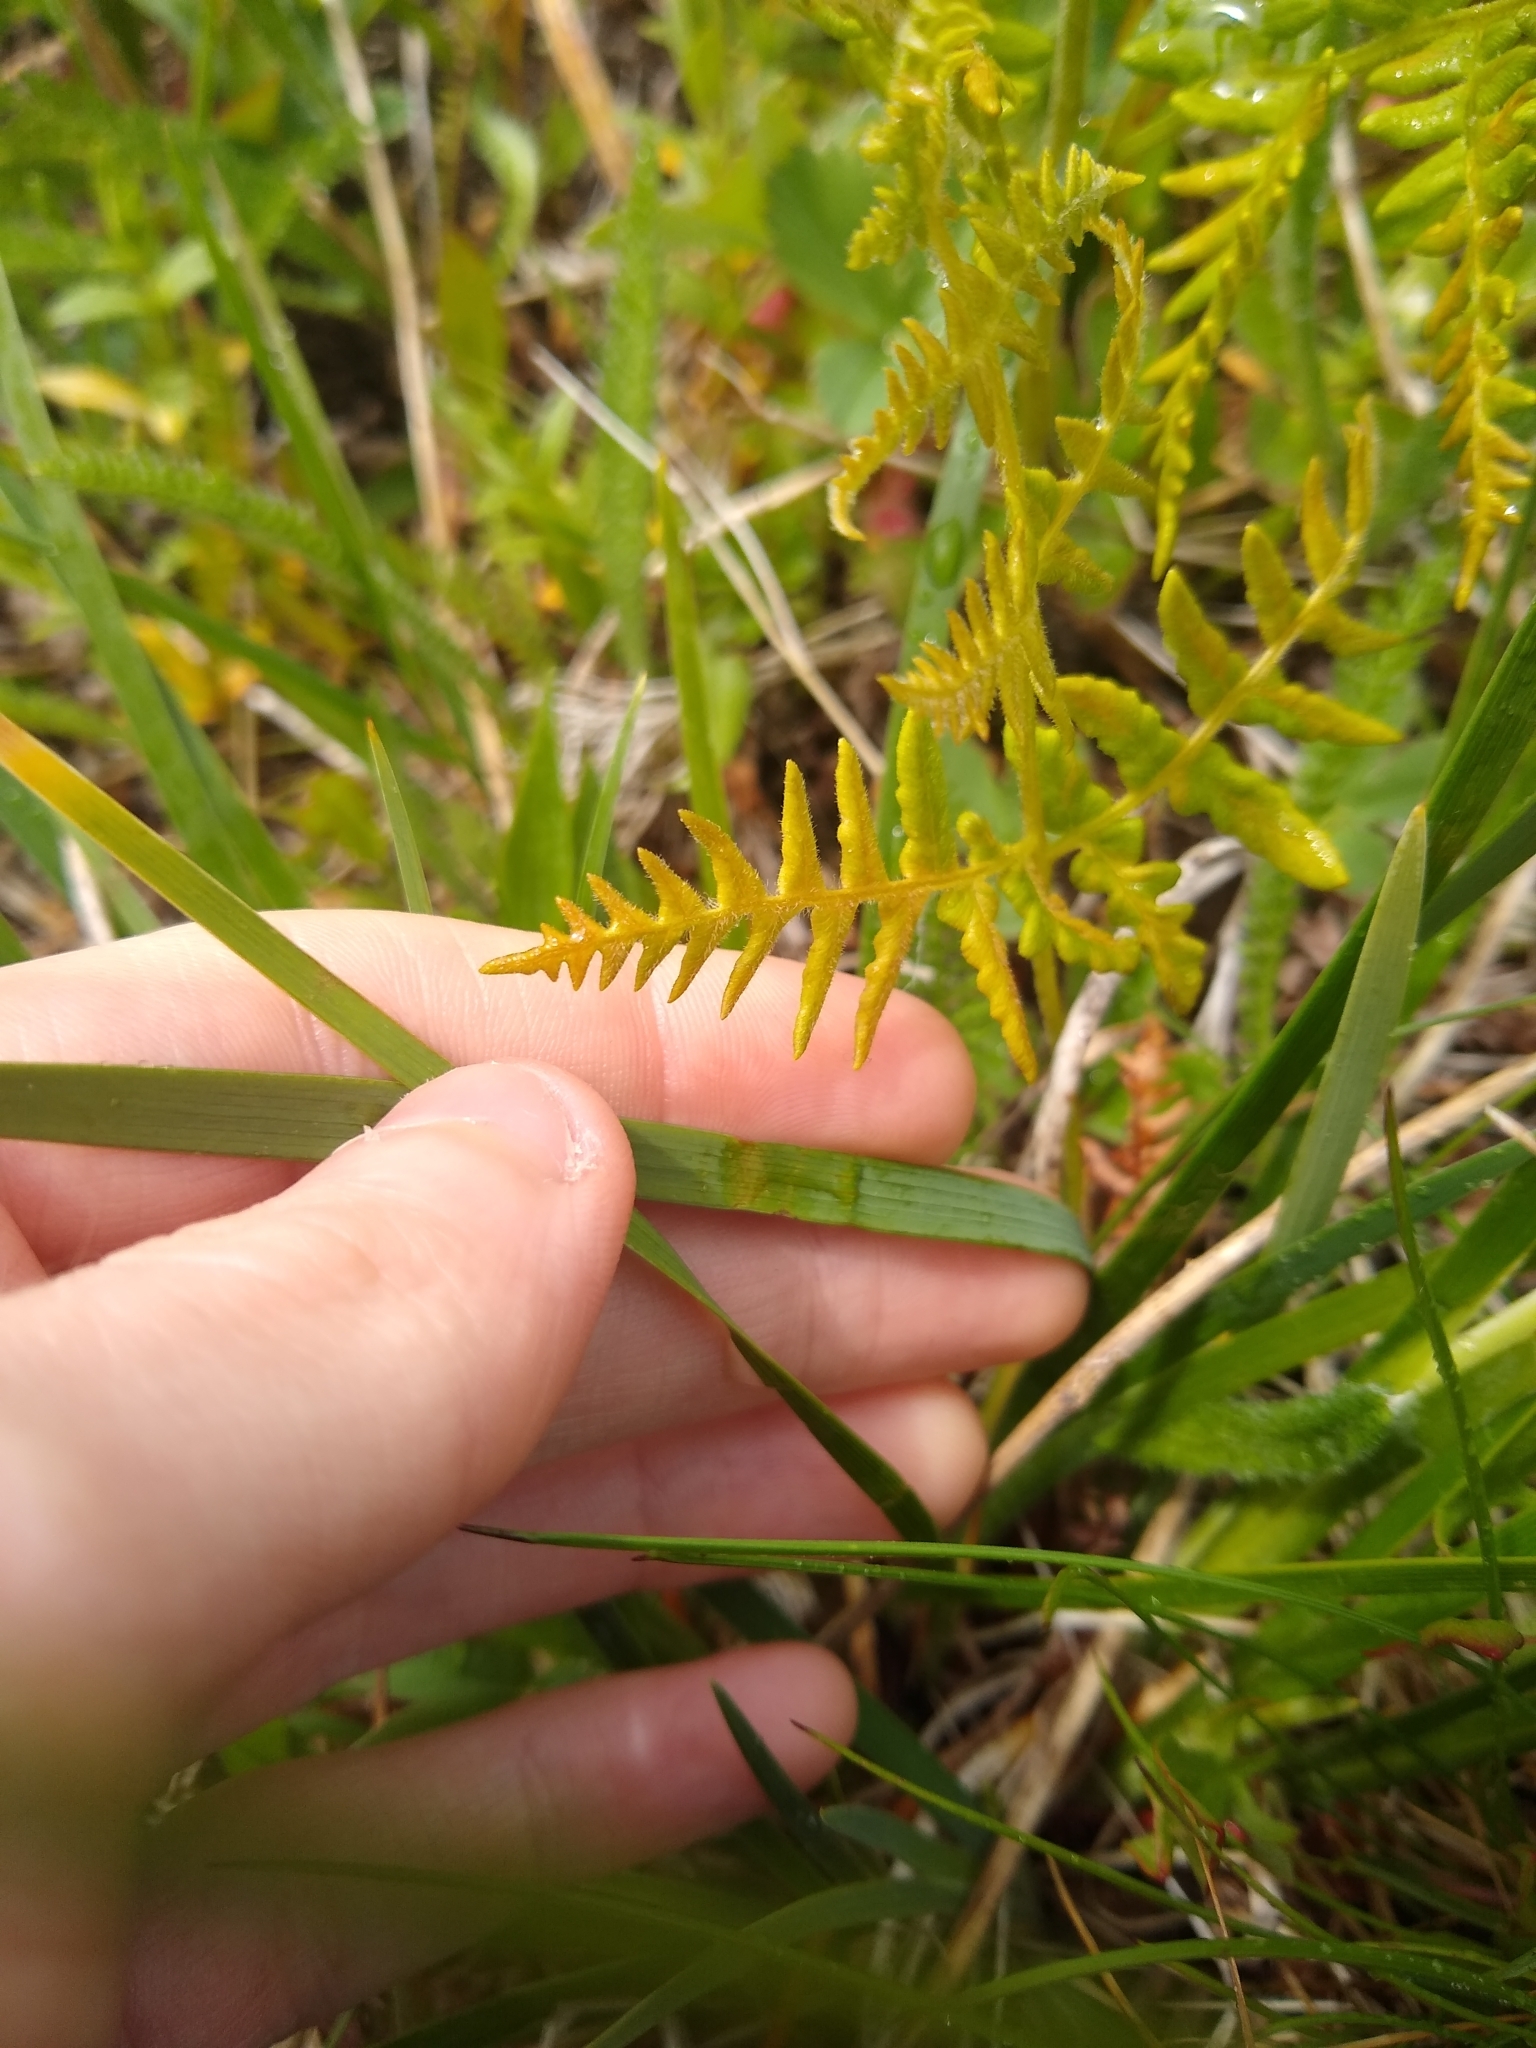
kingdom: Plantae
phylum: Tracheophyta
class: Liliopsida
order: Asparagales
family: Iridaceae
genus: Iris
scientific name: Iris tenax
